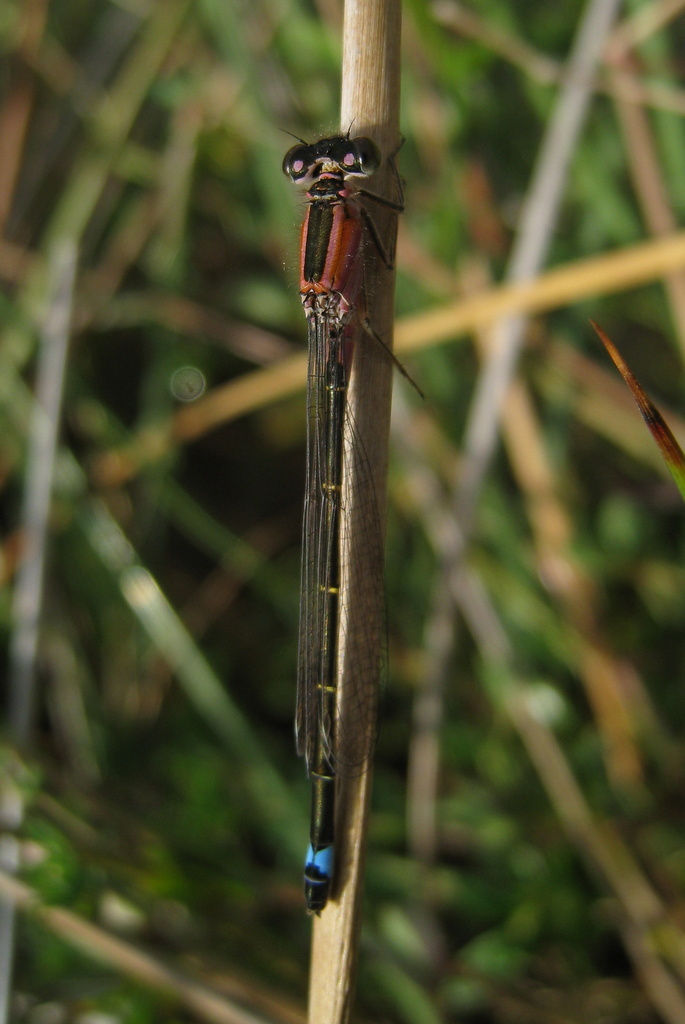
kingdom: Animalia
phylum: Arthropoda
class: Insecta
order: Odonata
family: Coenagrionidae
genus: Ischnura
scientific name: Ischnura genei
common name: Island bluetail
